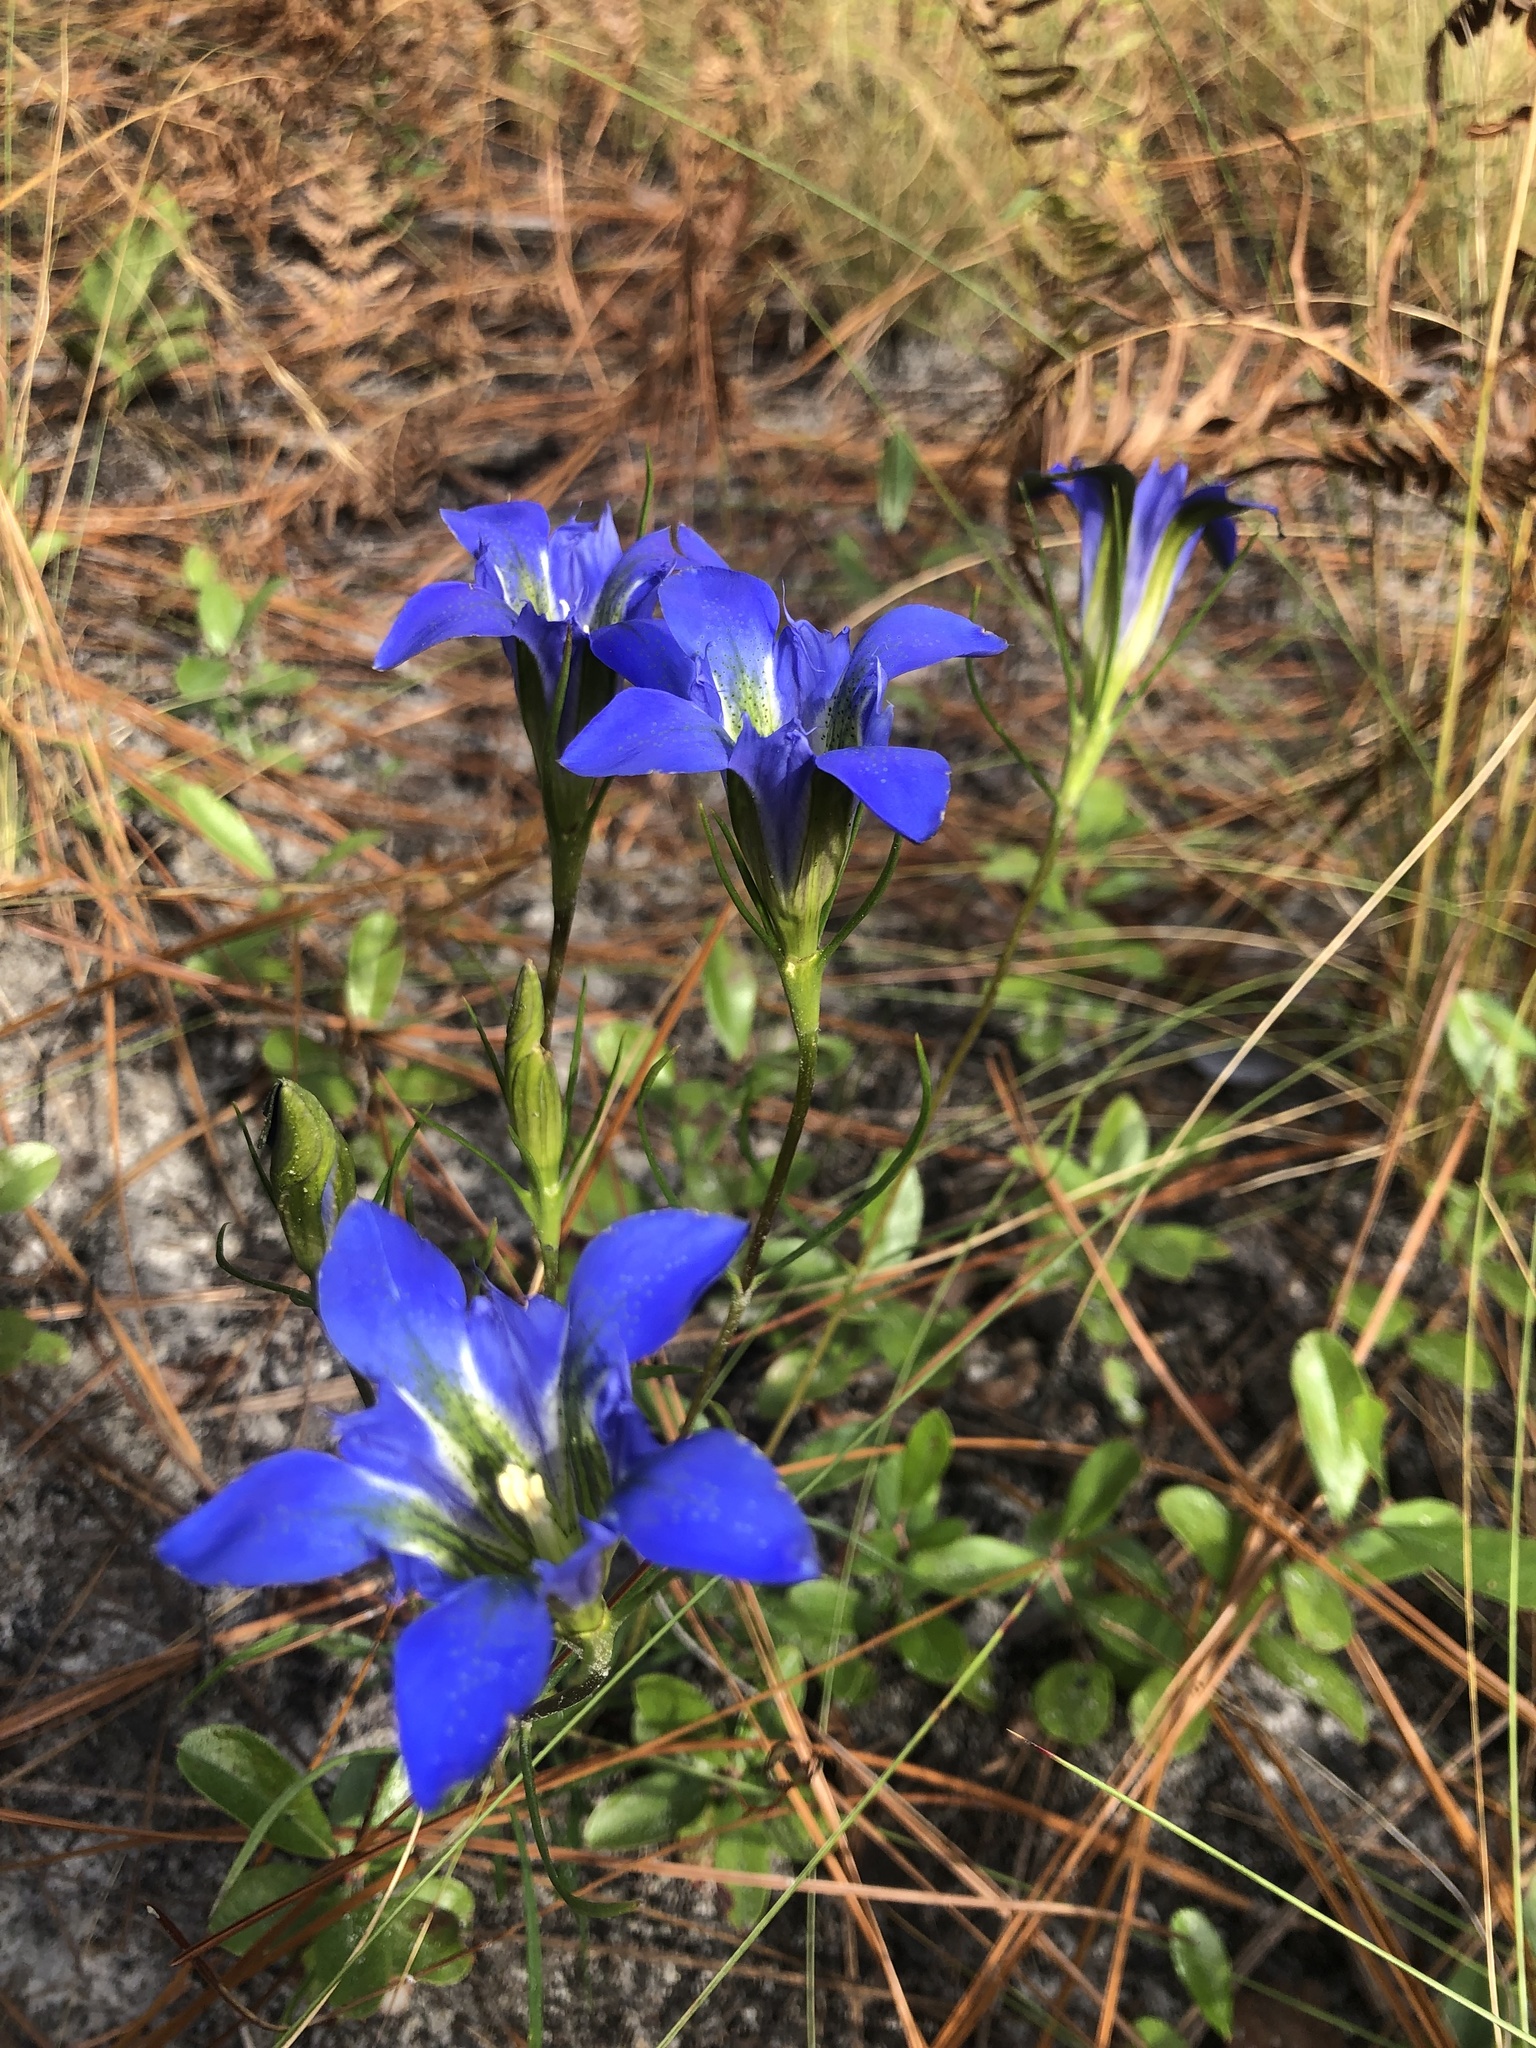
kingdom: Plantae
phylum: Tracheophyta
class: Magnoliopsida
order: Gentianales
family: Gentianaceae
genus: Gentiana
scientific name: Gentiana autumnalis
